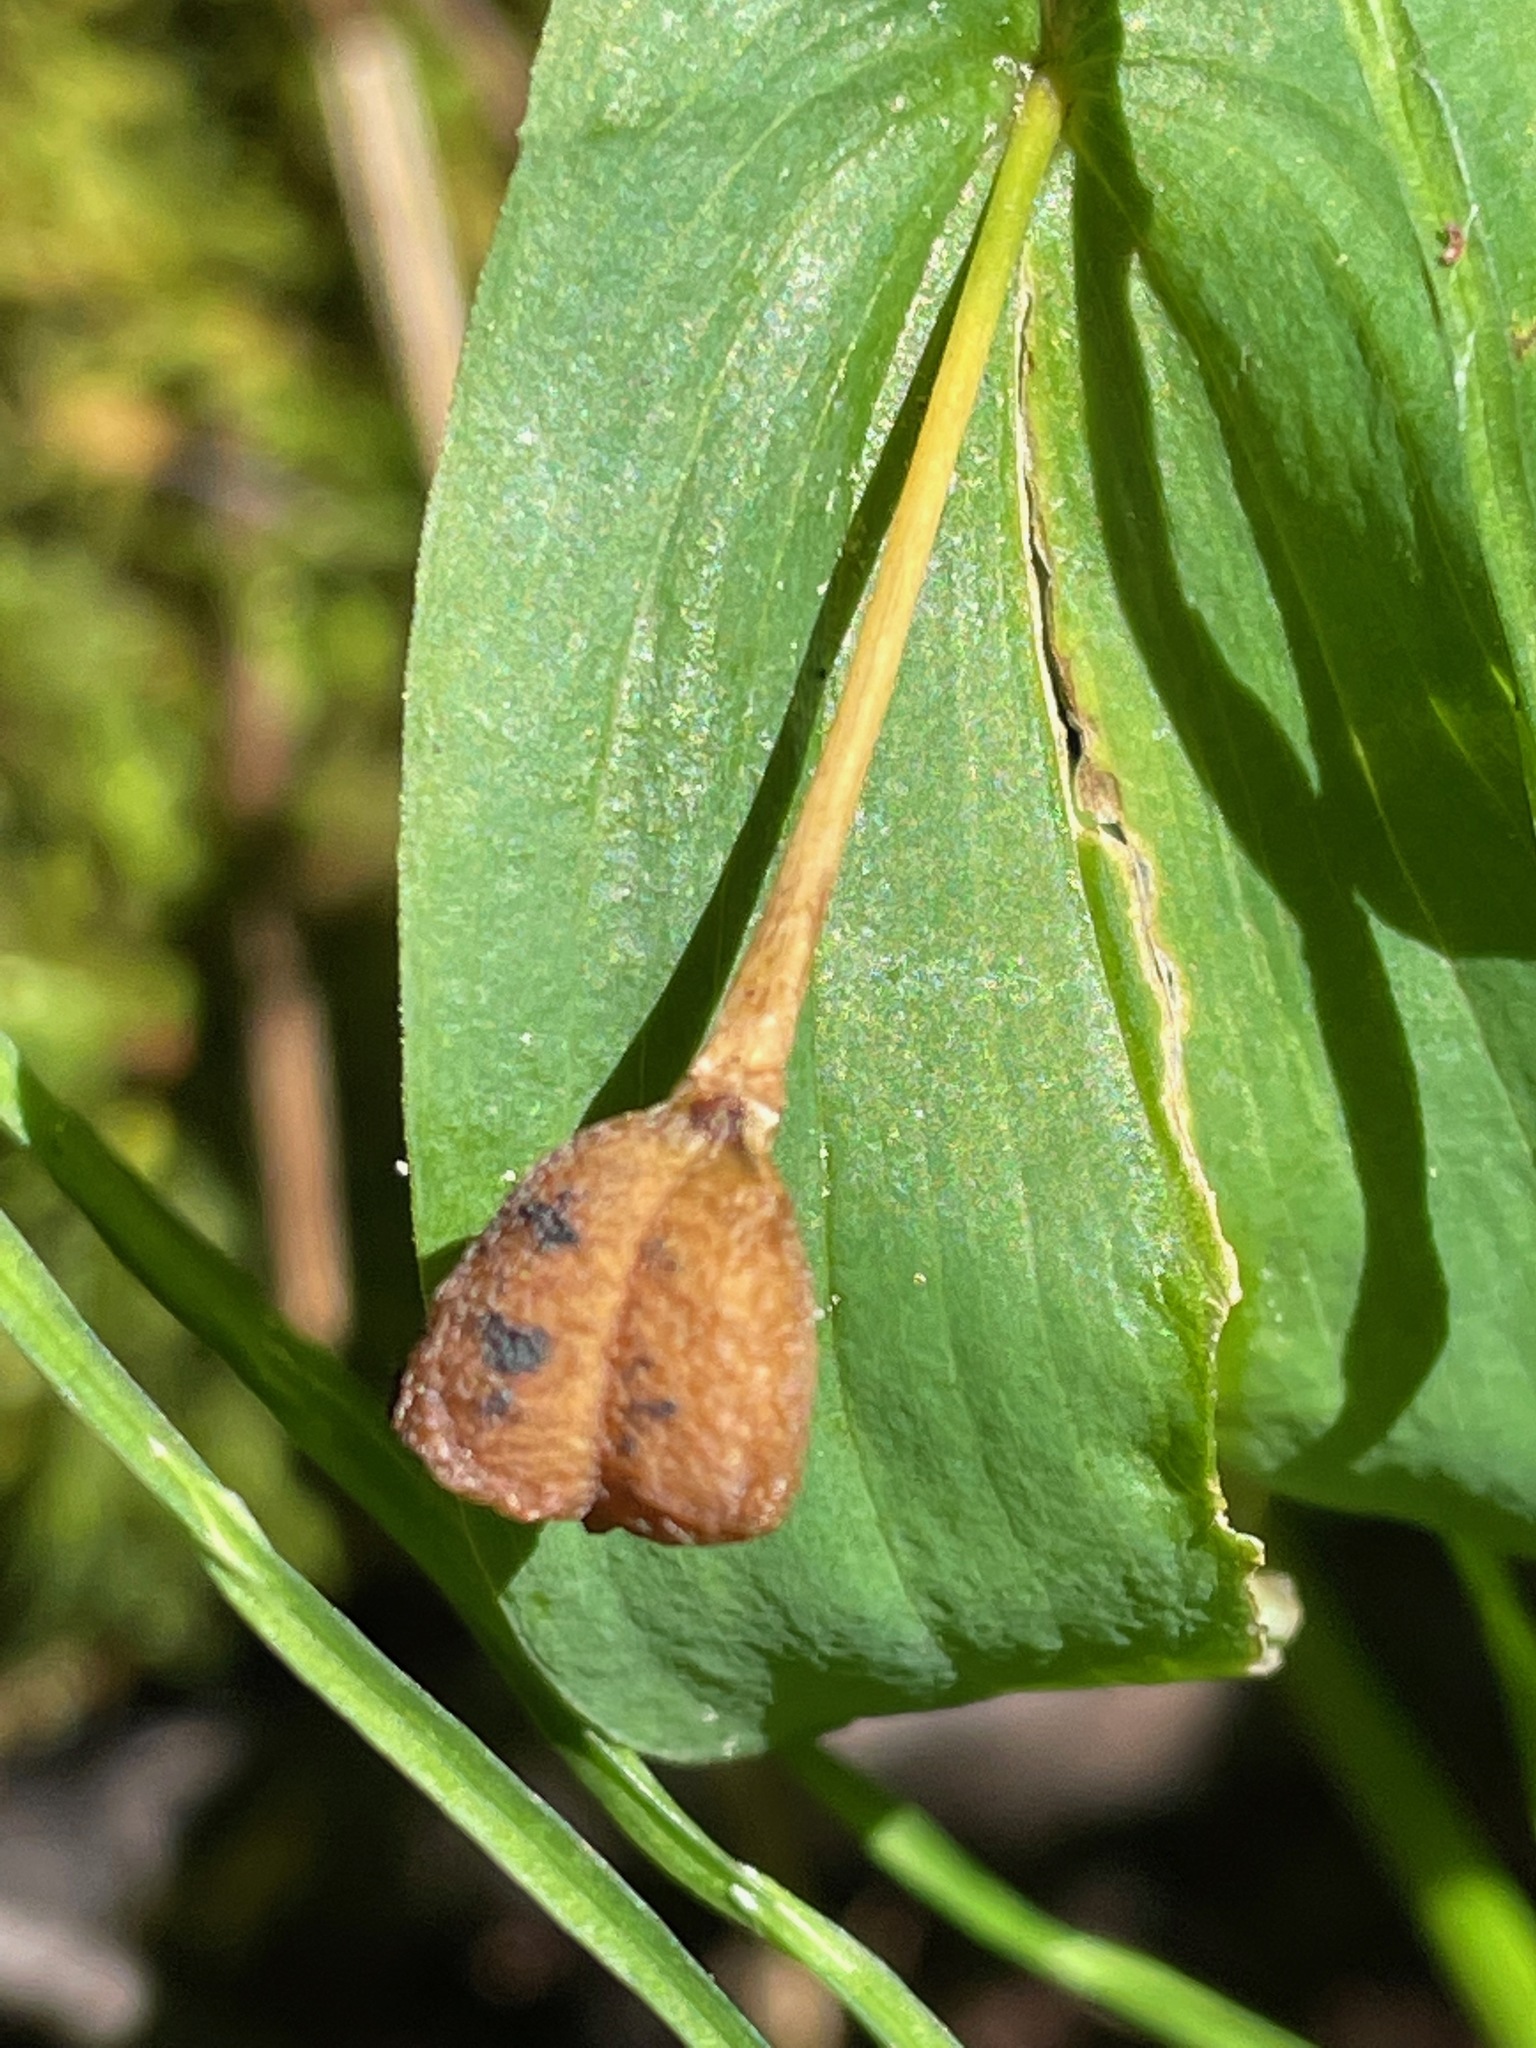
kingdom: Plantae
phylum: Tracheophyta
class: Liliopsida
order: Liliales
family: Colchicaceae
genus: Uvularia
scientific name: Uvularia grandiflora
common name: Bellwort
